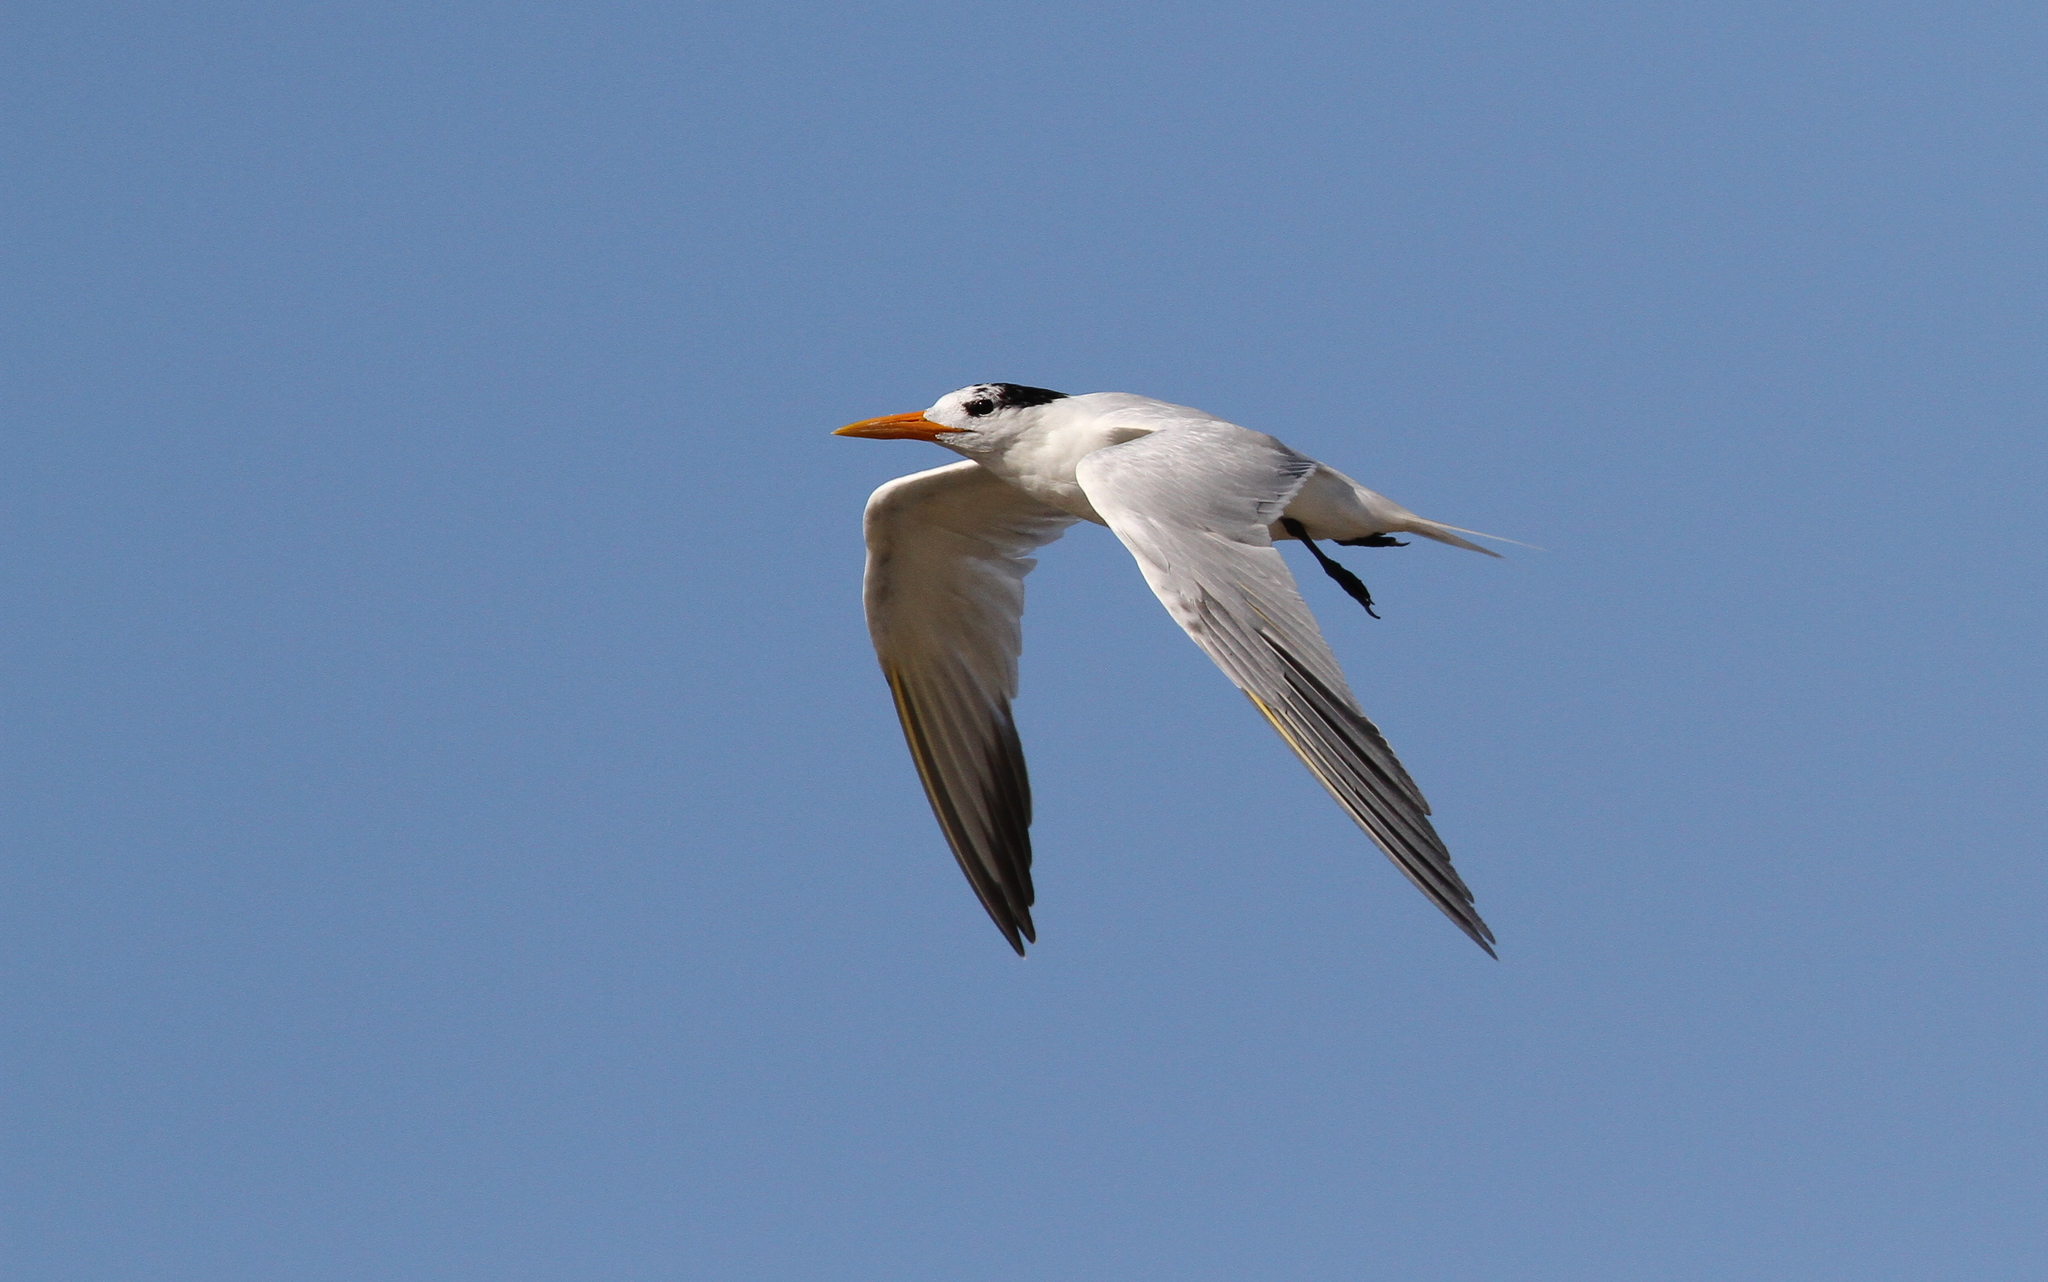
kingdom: Animalia
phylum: Chordata
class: Aves
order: Charadriiformes
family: Laridae
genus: Thalasseus
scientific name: Thalasseus albididorsalis
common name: West african crested tern
